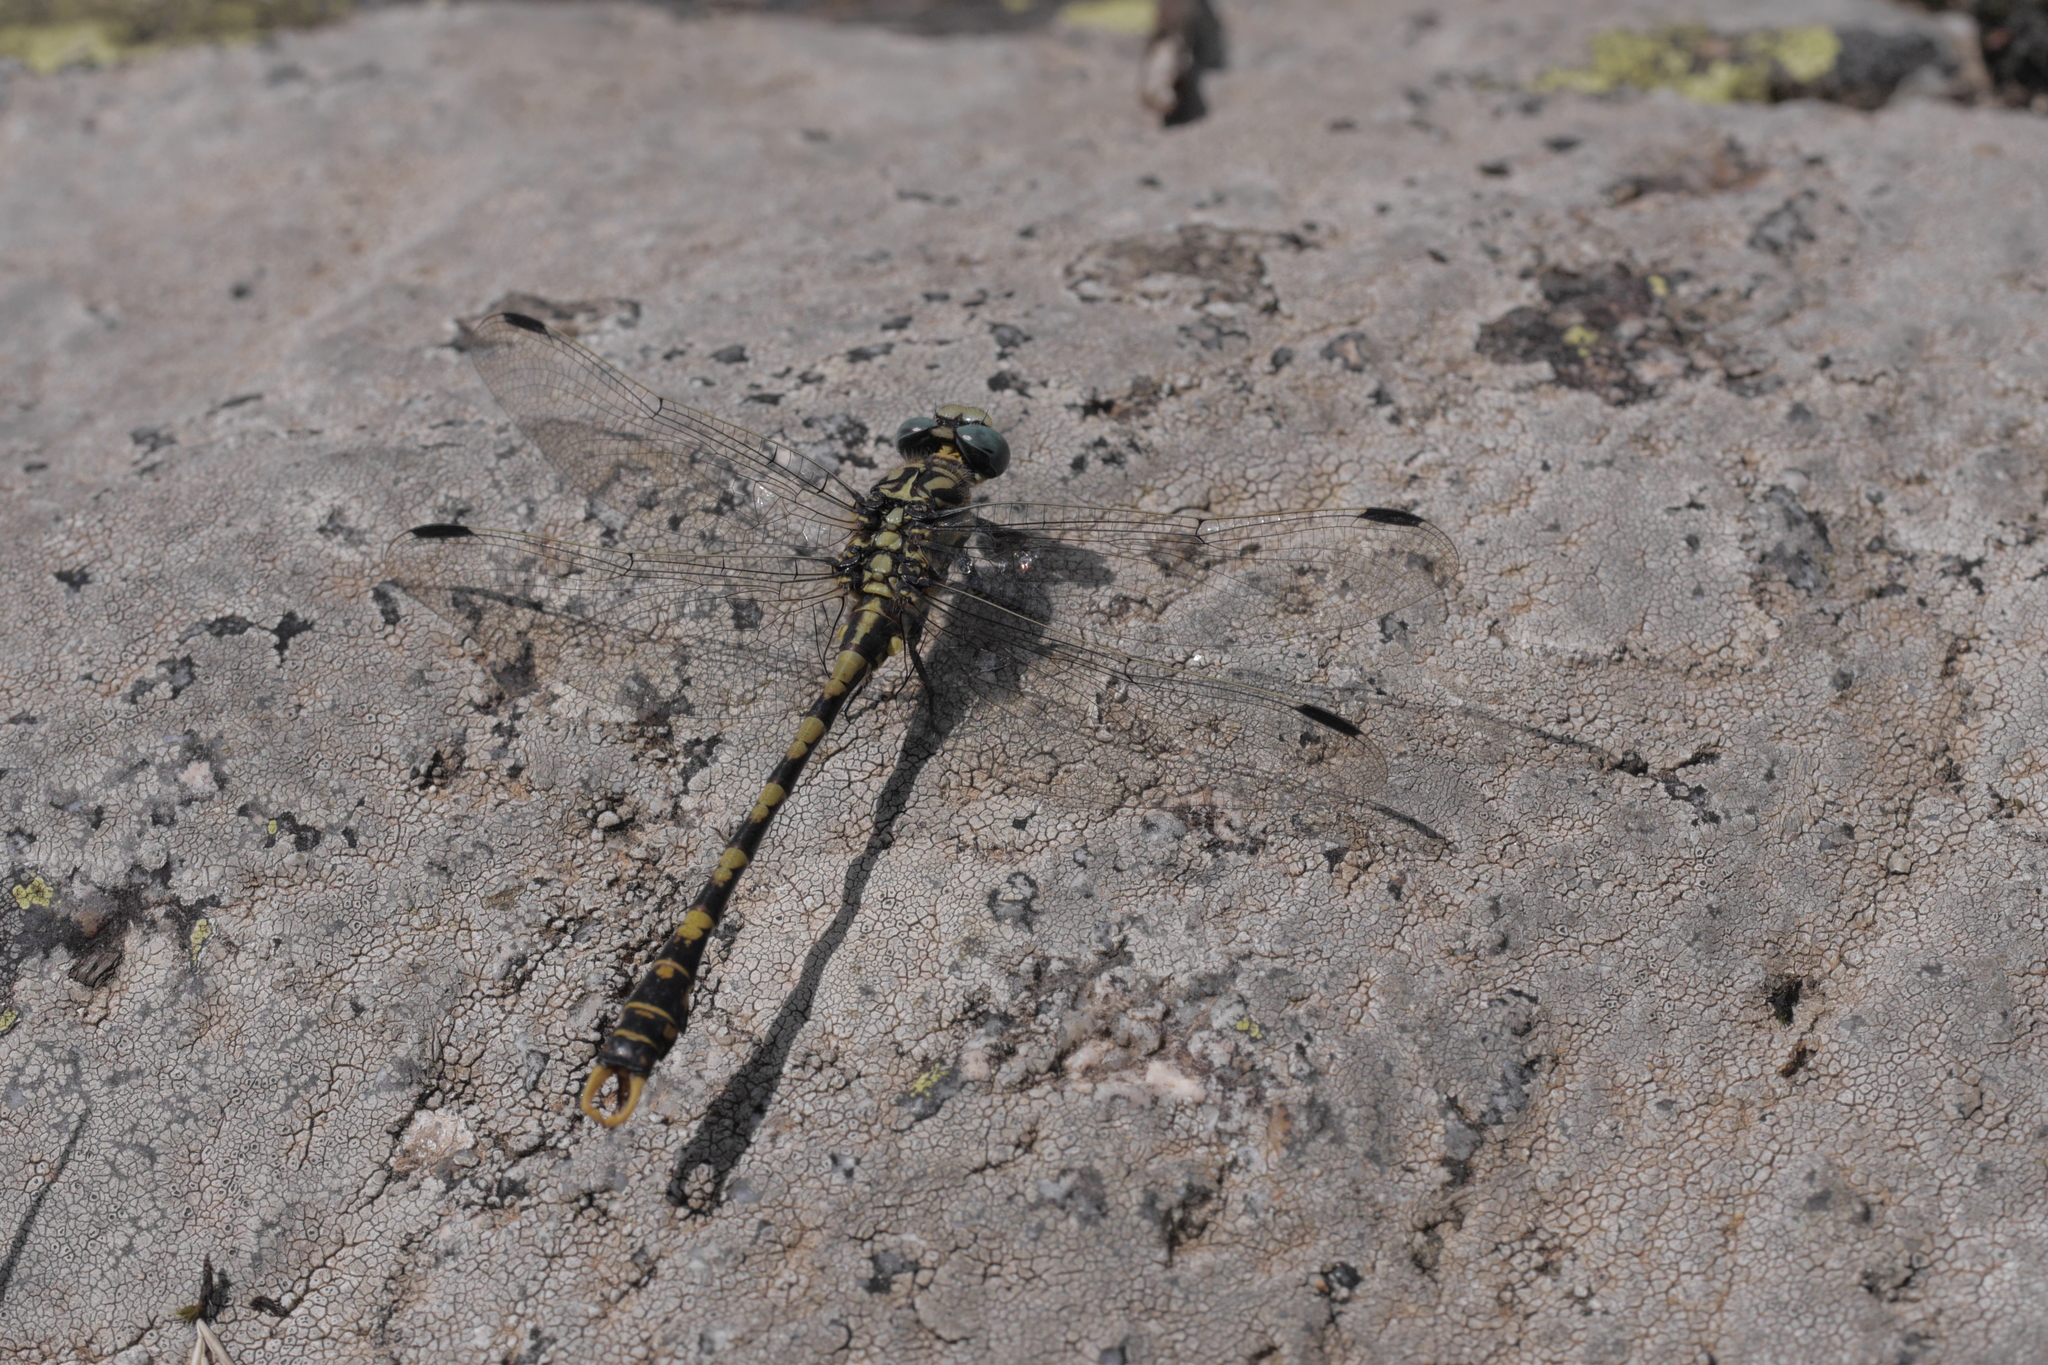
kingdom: Animalia
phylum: Arthropoda
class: Insecta
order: Odonata
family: Gomphidae
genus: Onychogomphus
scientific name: Onychogomphus uncatus
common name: Large pincertail
